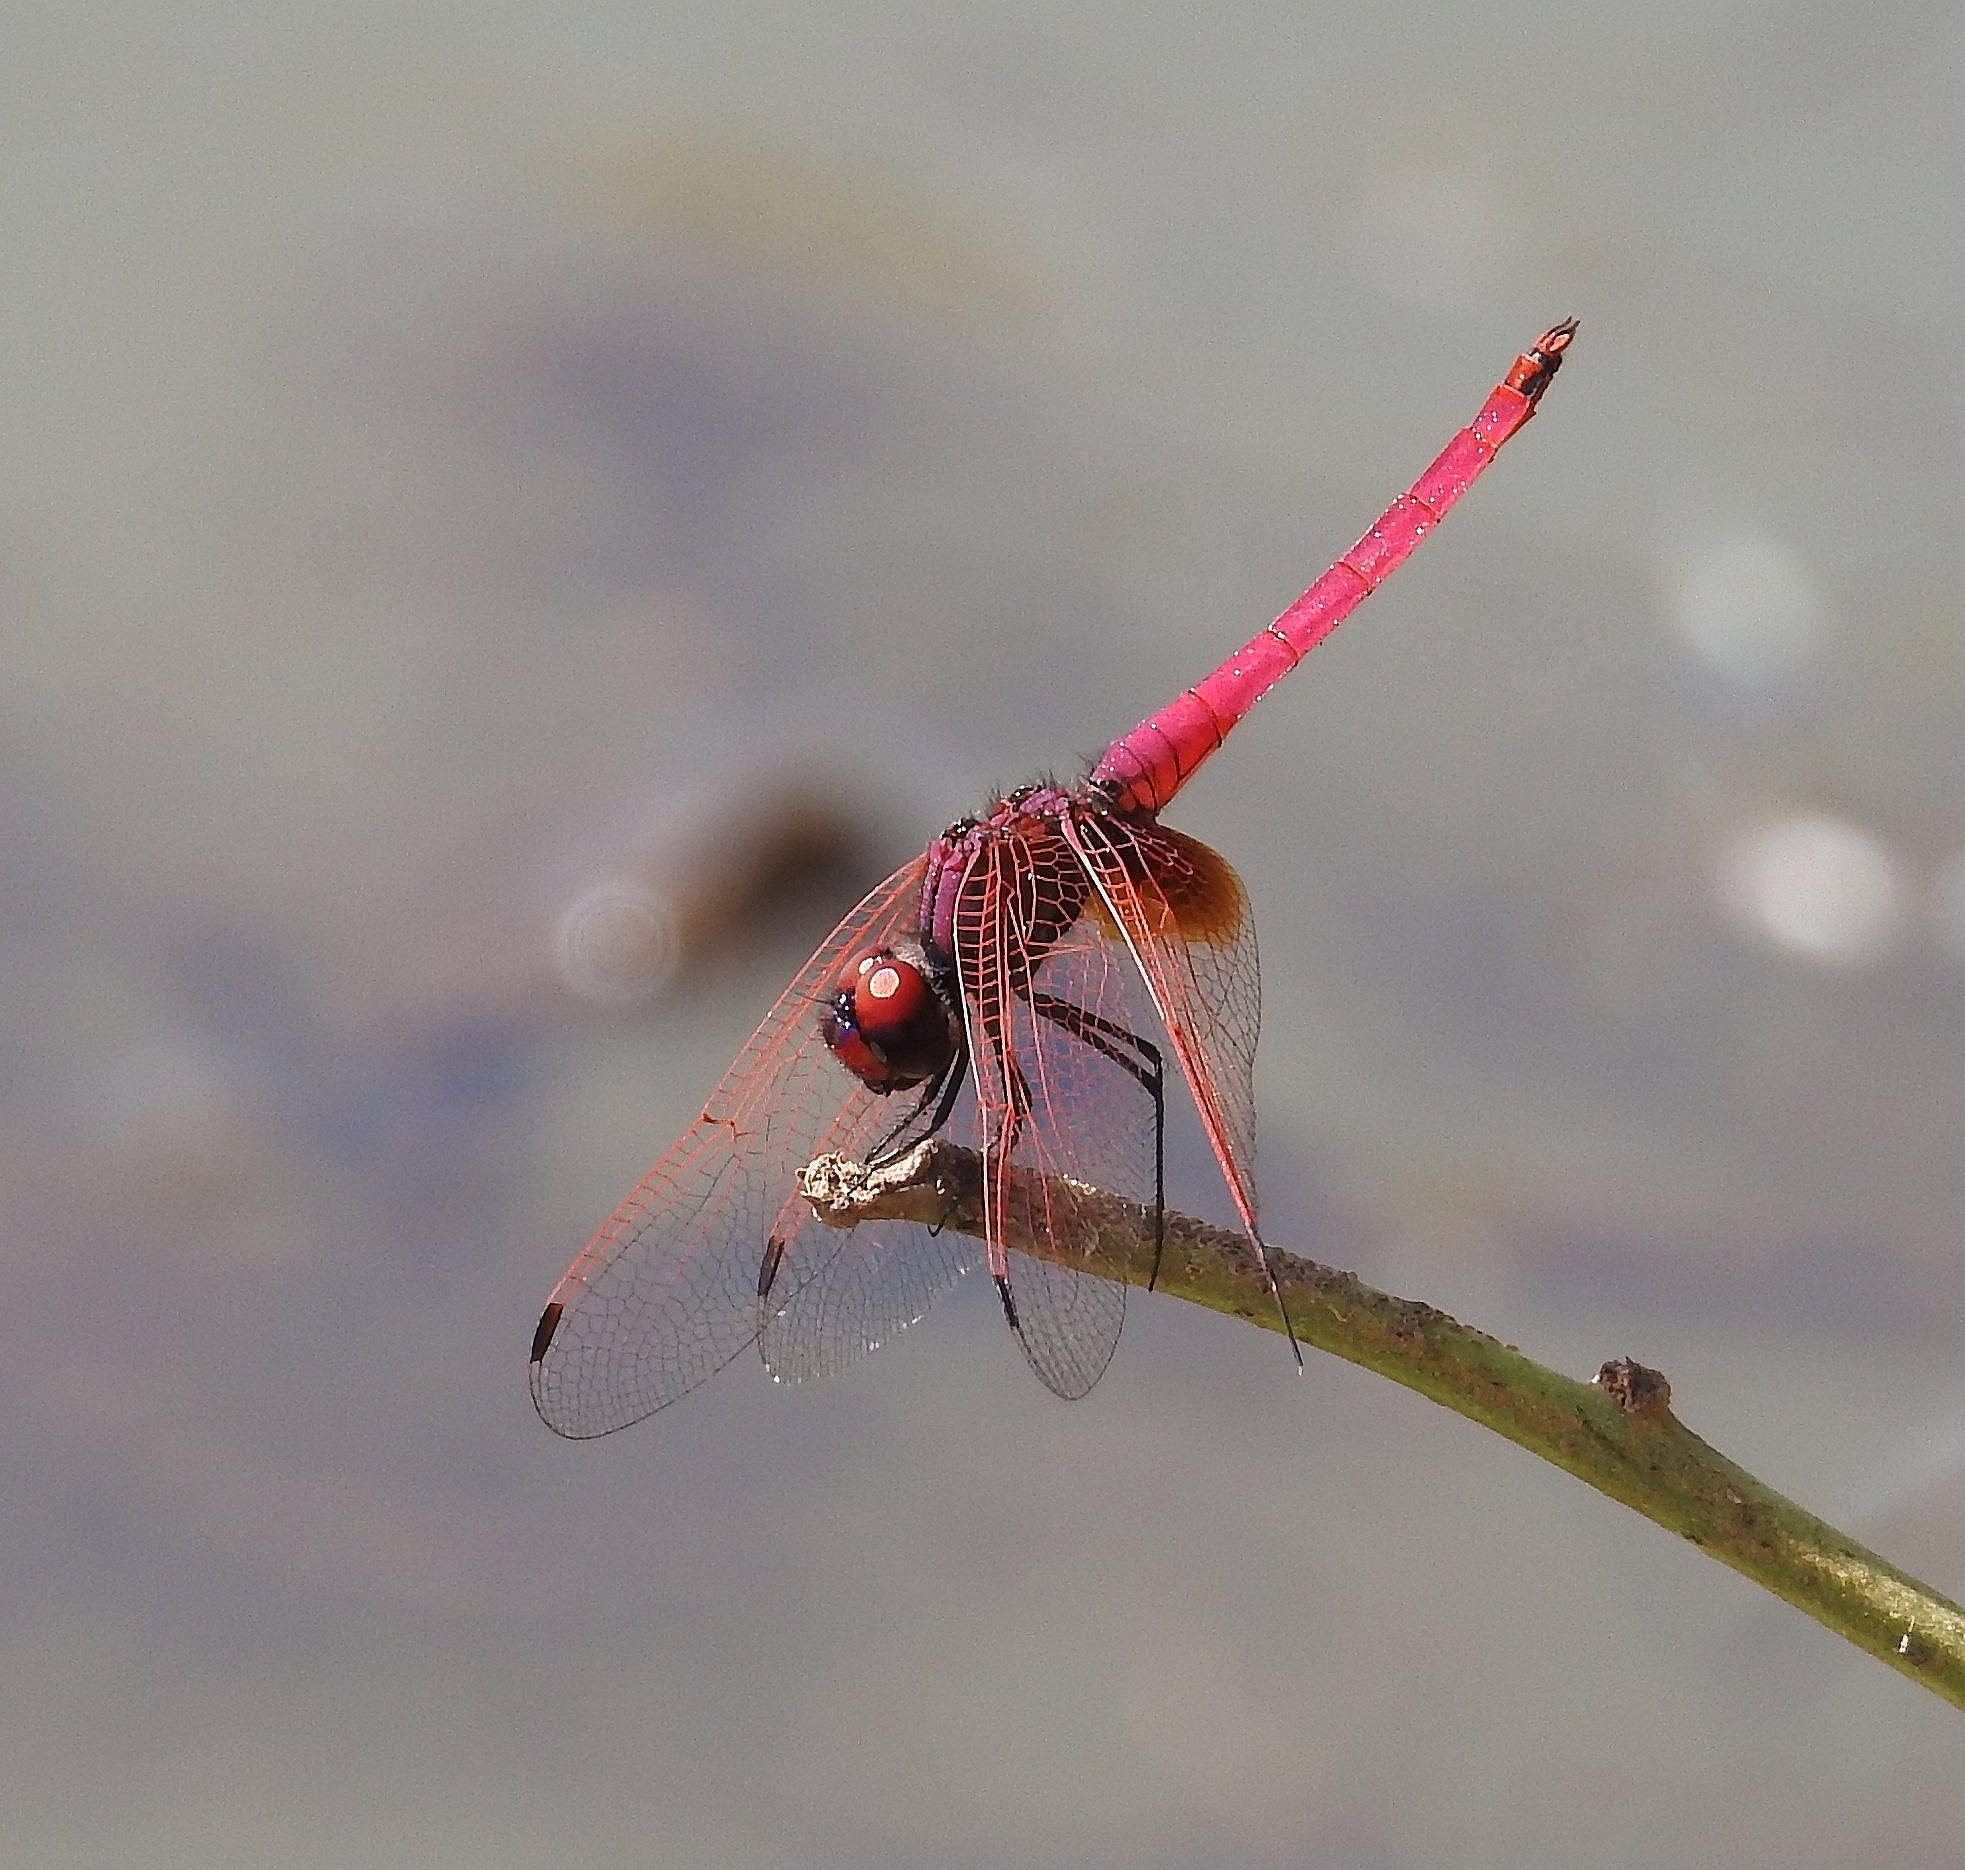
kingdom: Animalia
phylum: Arthropoda
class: Insecta
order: Odonata
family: Libellulidae
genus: Trithemis
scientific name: Trithemis aurora
